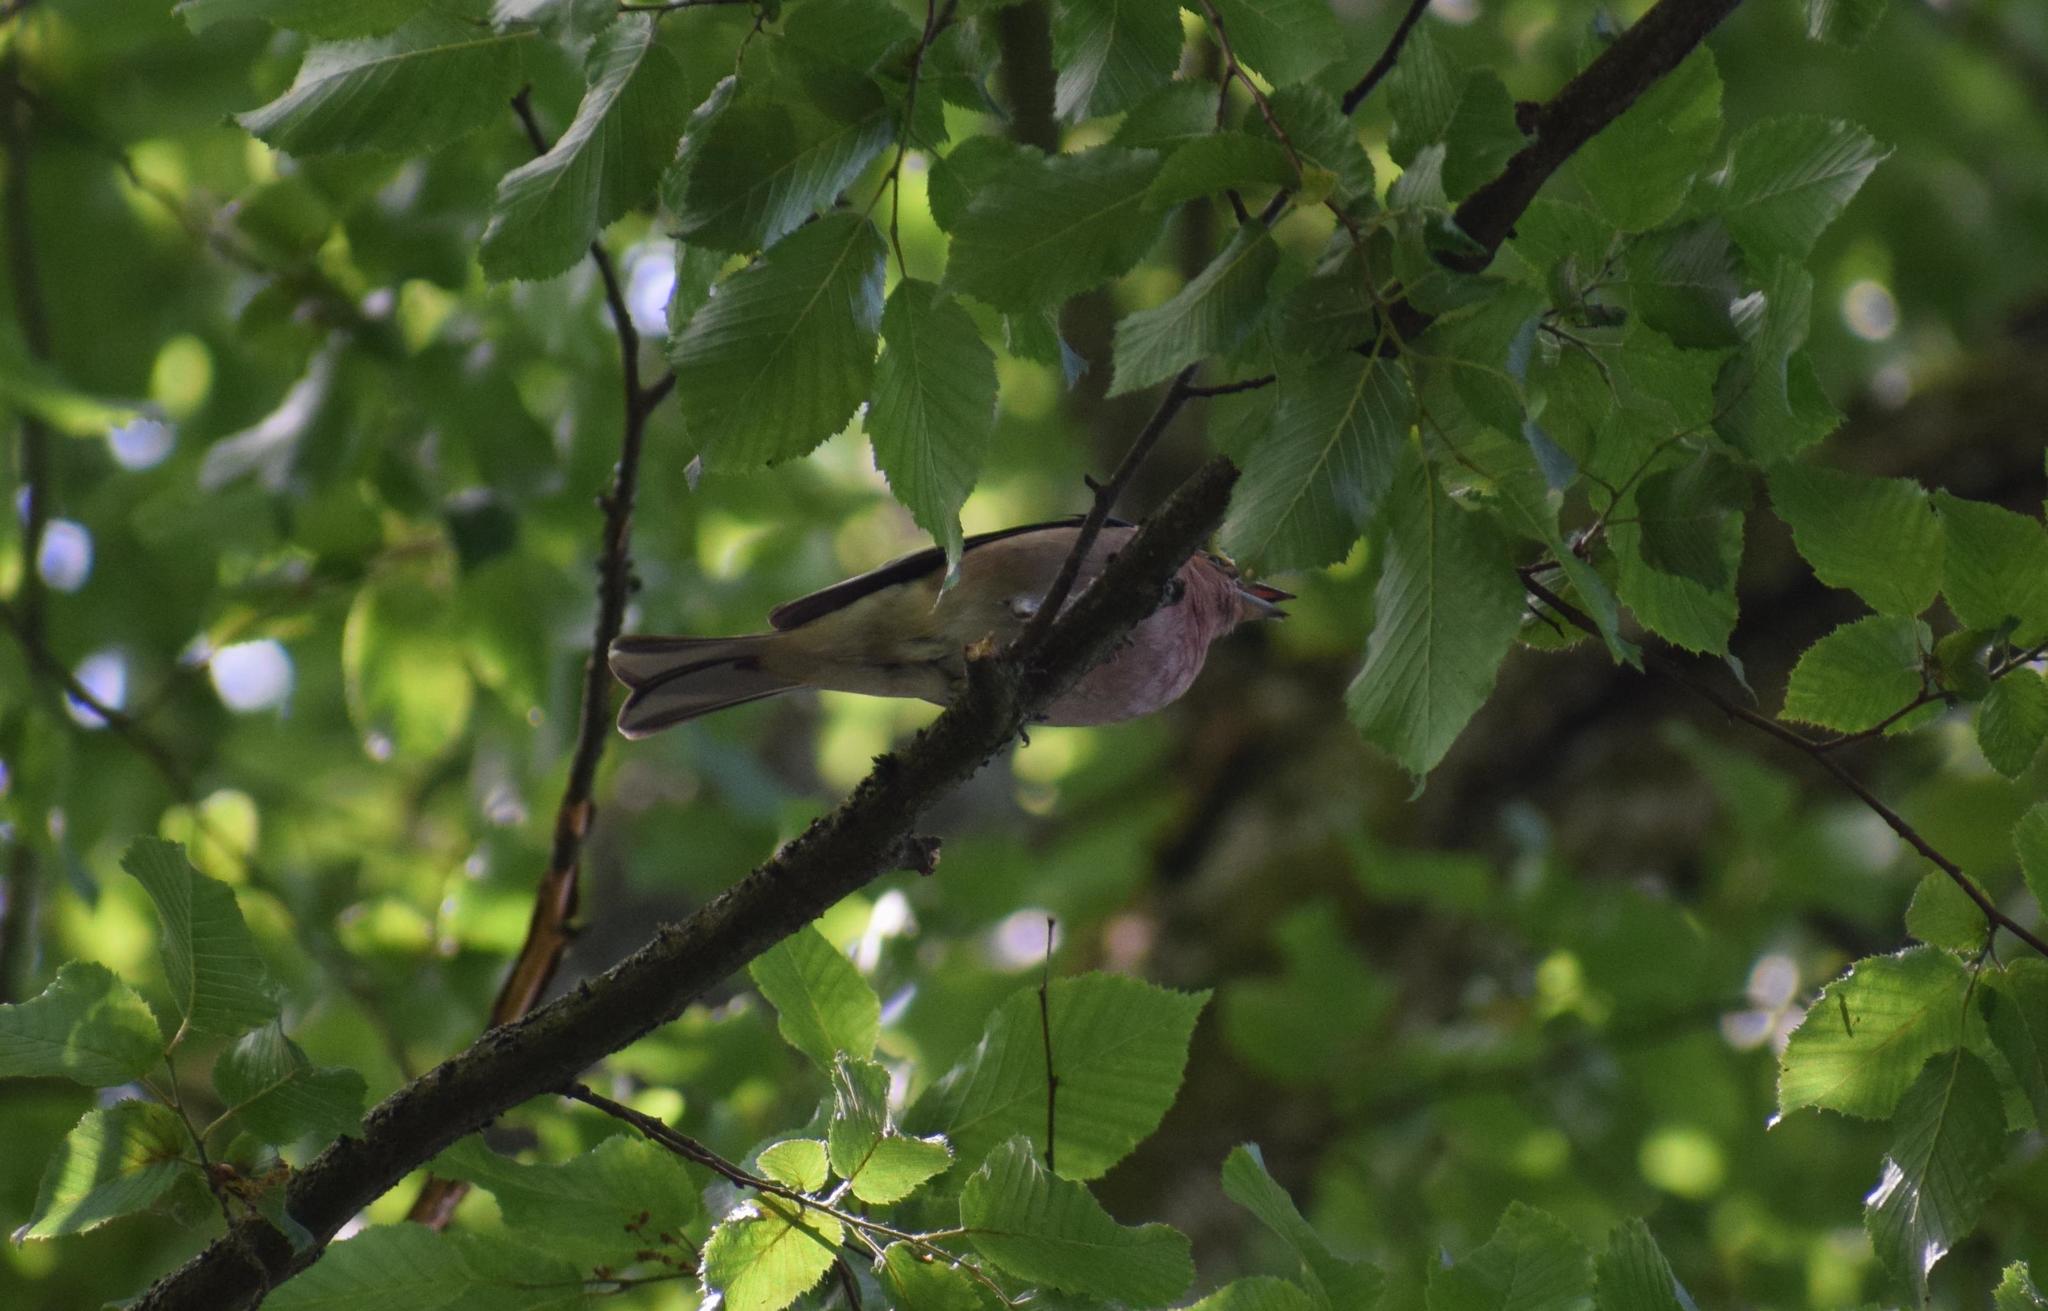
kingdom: Animalia
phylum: Chordata
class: Aves
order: Passeriformes
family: Fringillidae
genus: Fringilla
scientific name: Fringilla coelebs
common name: Common chaffinch
